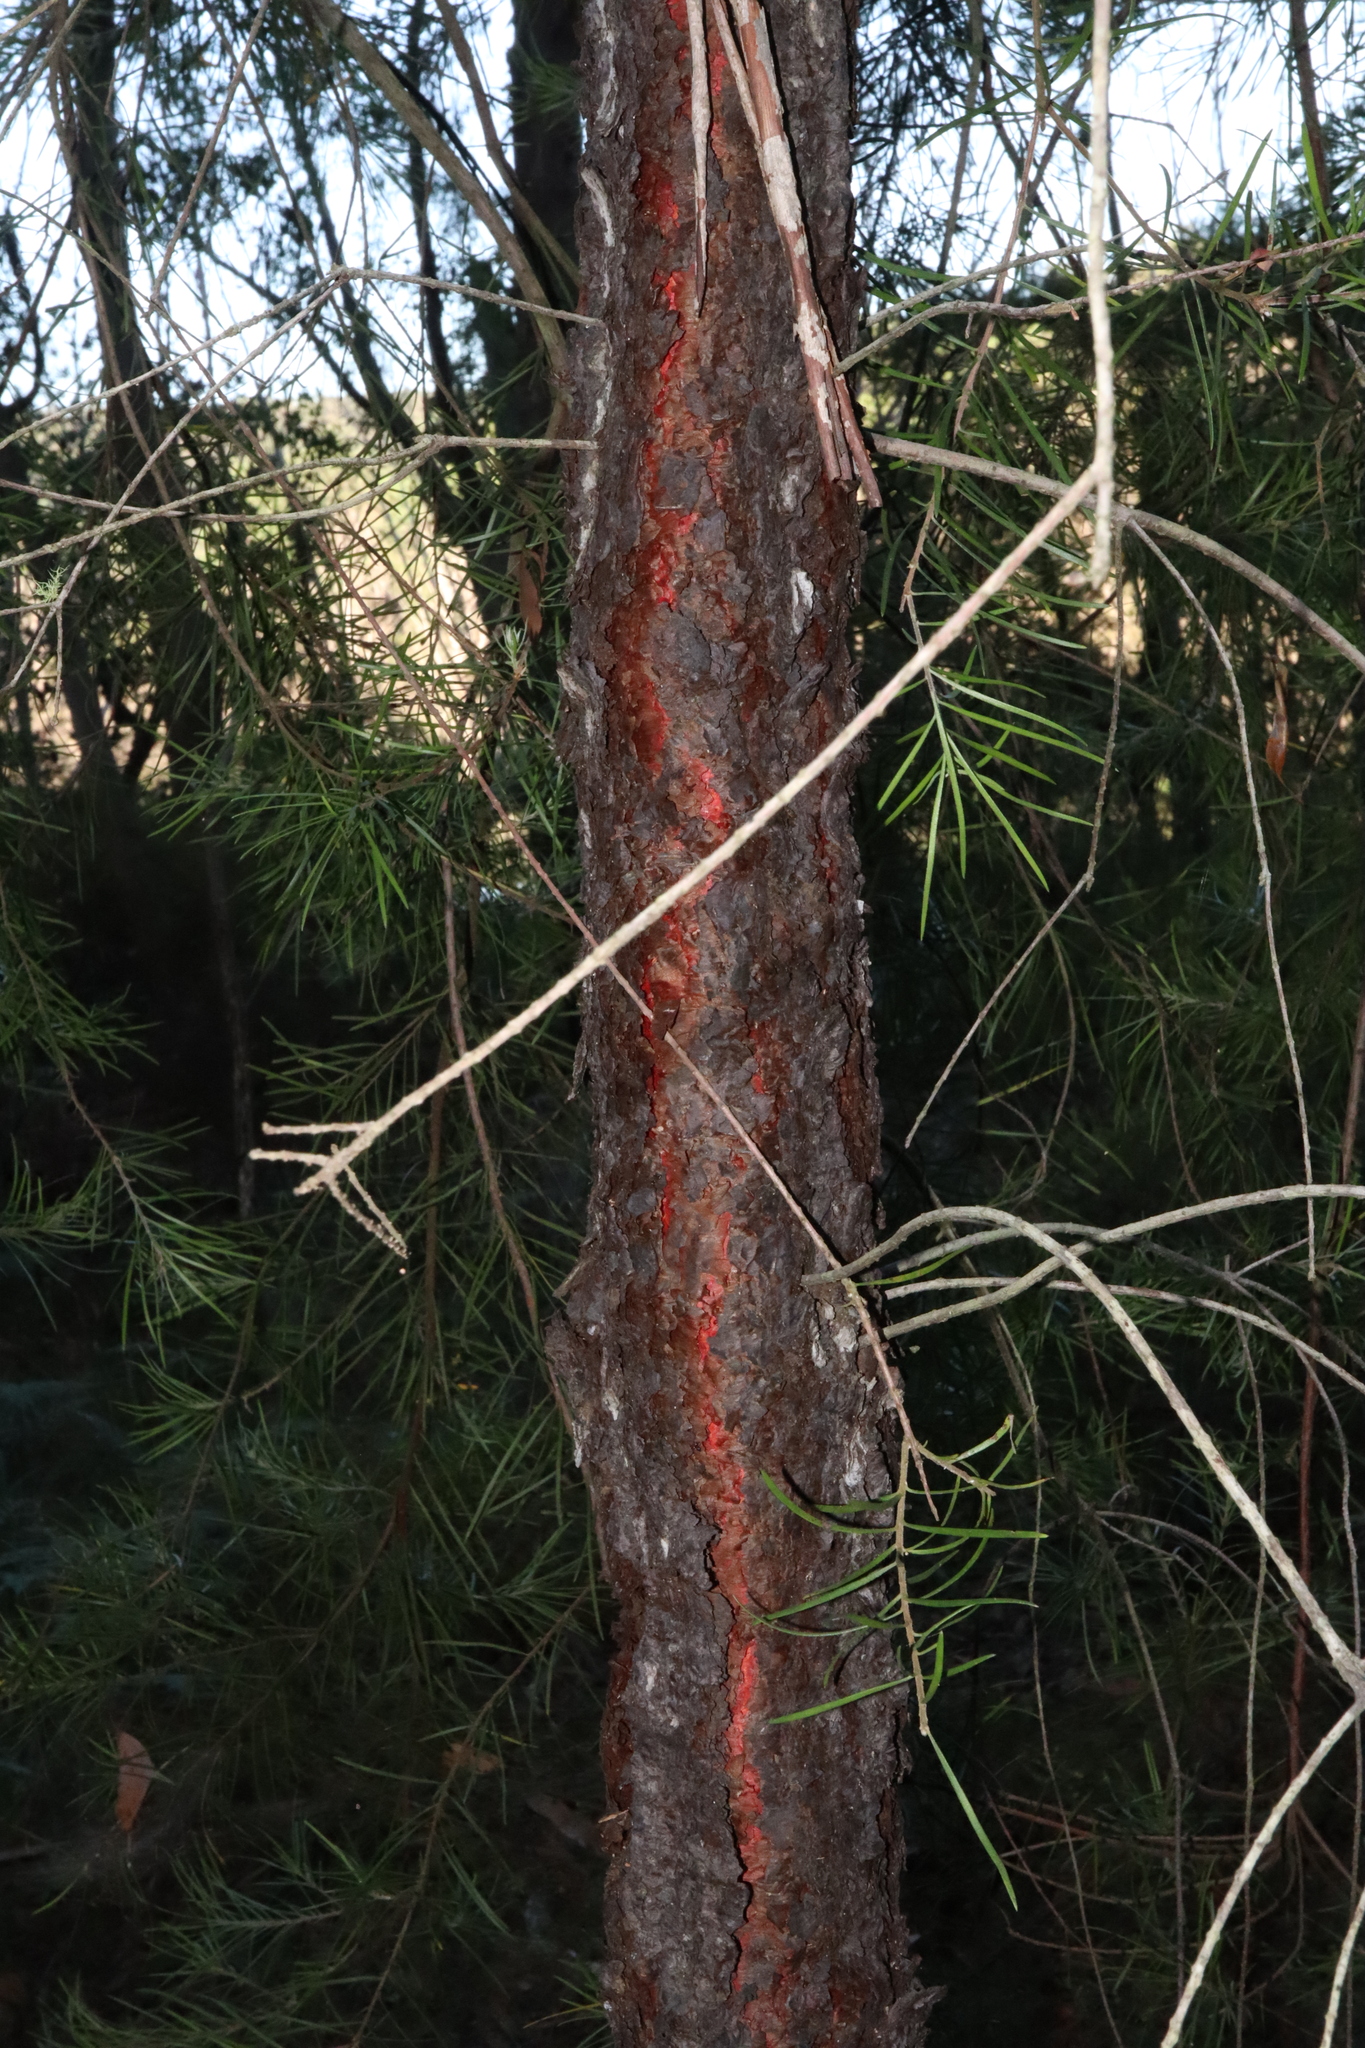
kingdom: Plantae
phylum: Tracheophyta
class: Magnoliopsida
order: Proteales
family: Proteaceae
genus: Persoonia
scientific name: Persoonia linearis
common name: Narrow-leaf geebung
